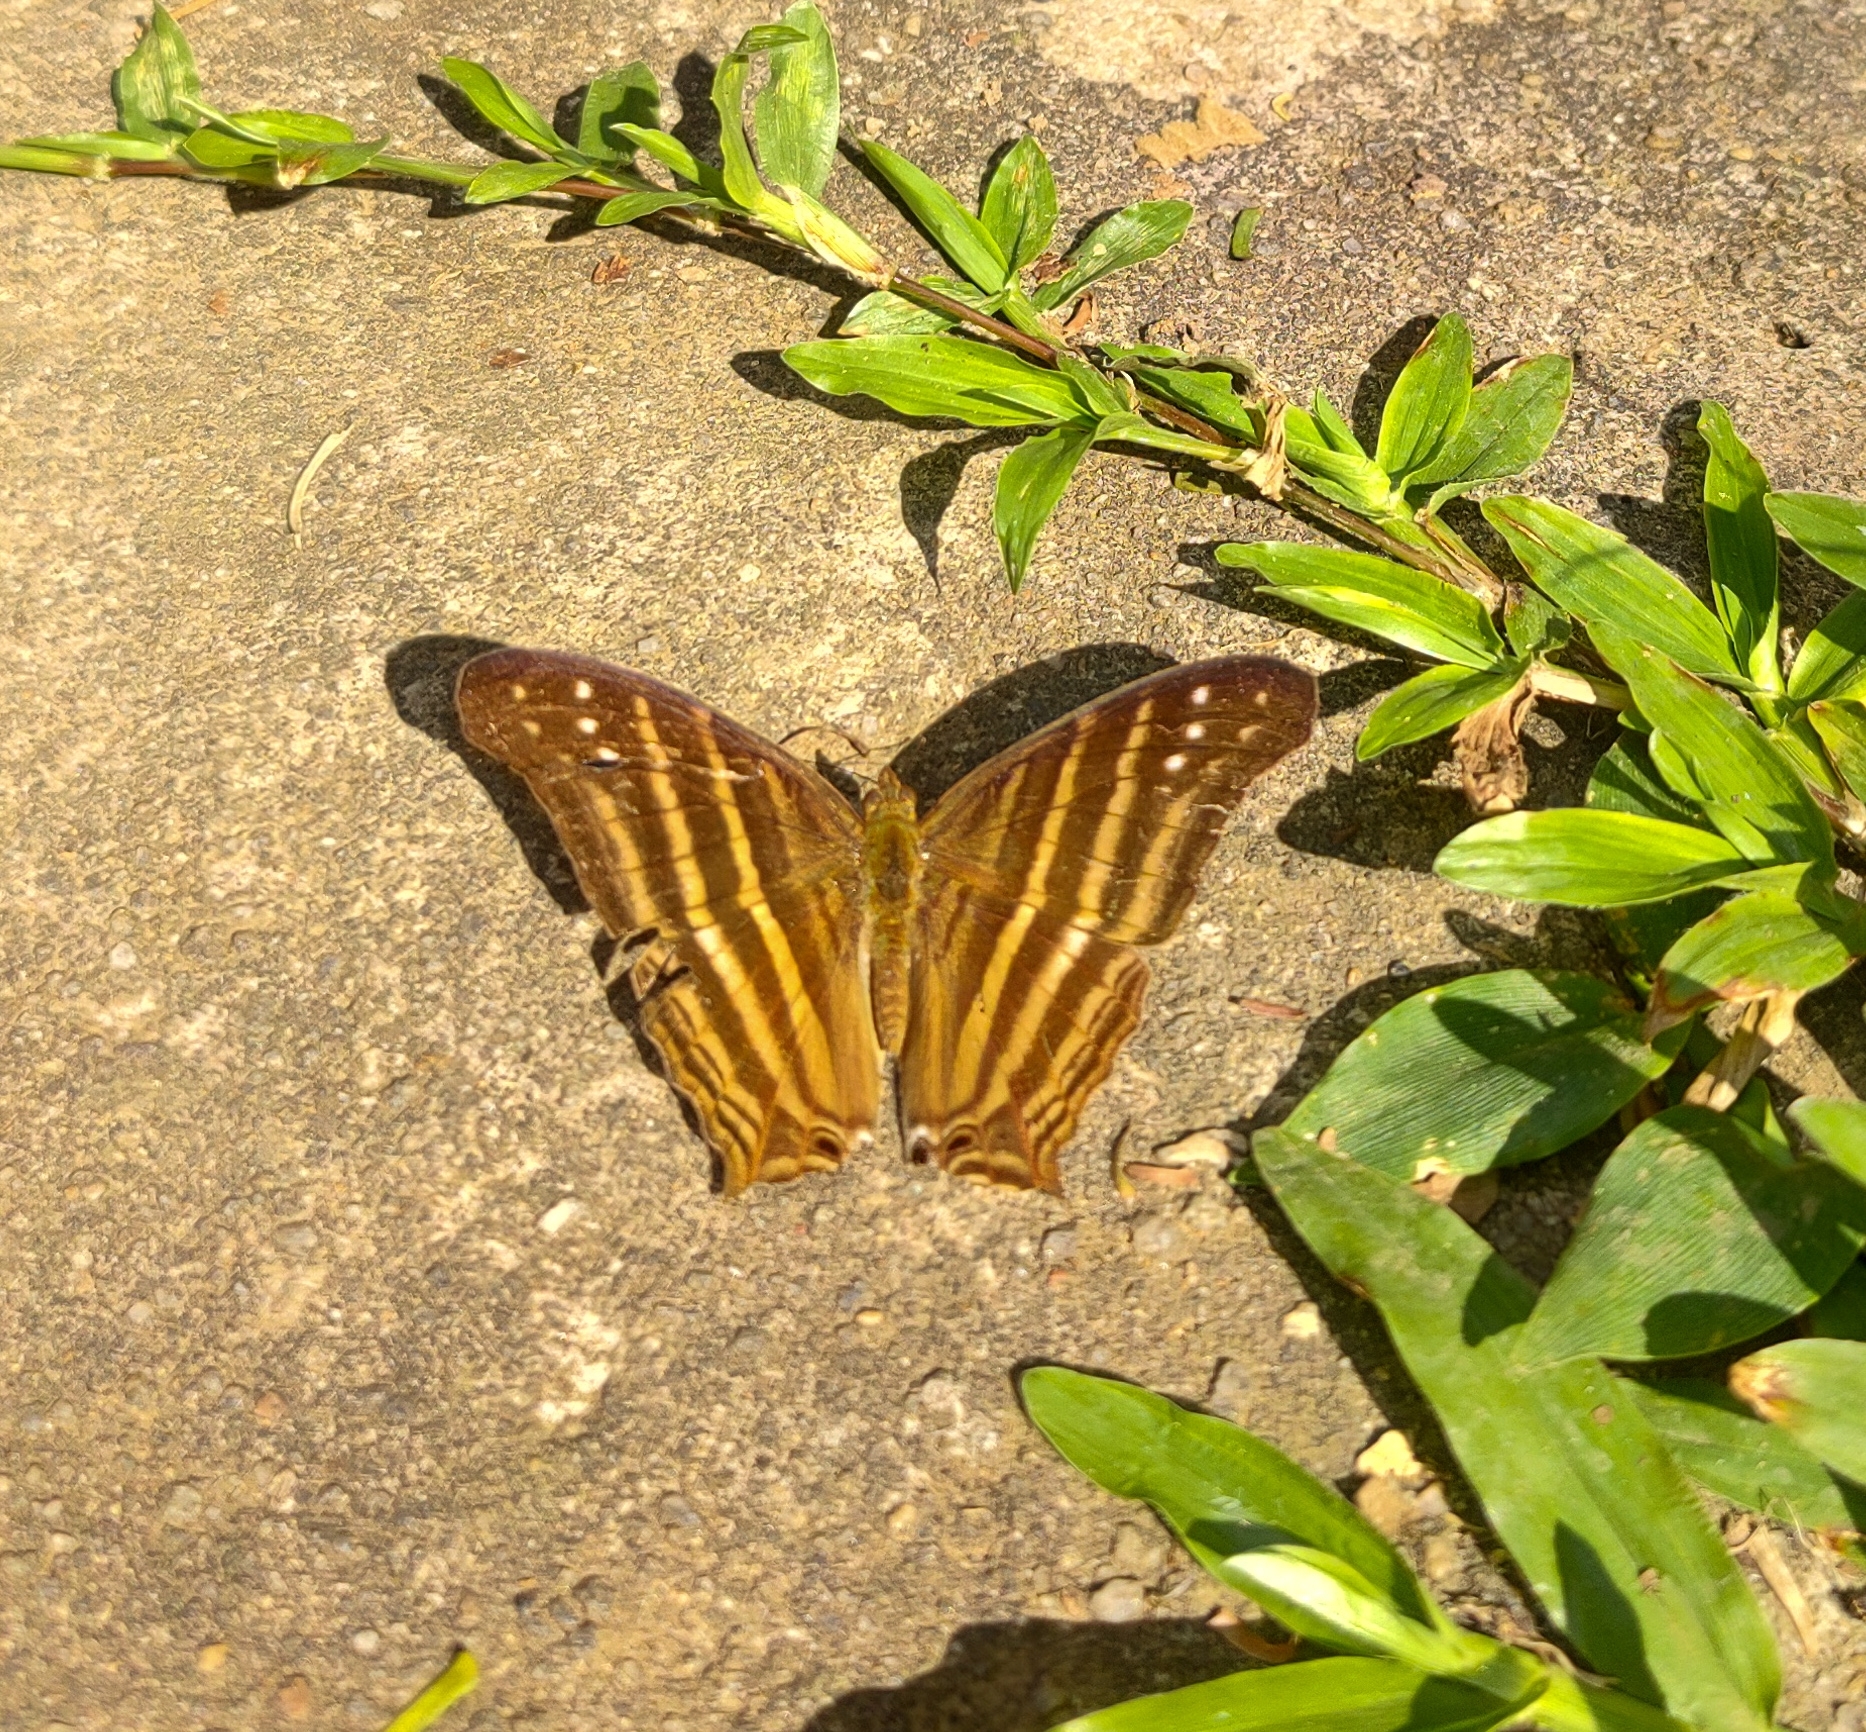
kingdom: Animalia
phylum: Arthropoda
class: Insecta
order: Lepidoptera
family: Nymphalidae
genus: Marpesia
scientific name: Marpesia chiron
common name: Many-banded daggerwing
